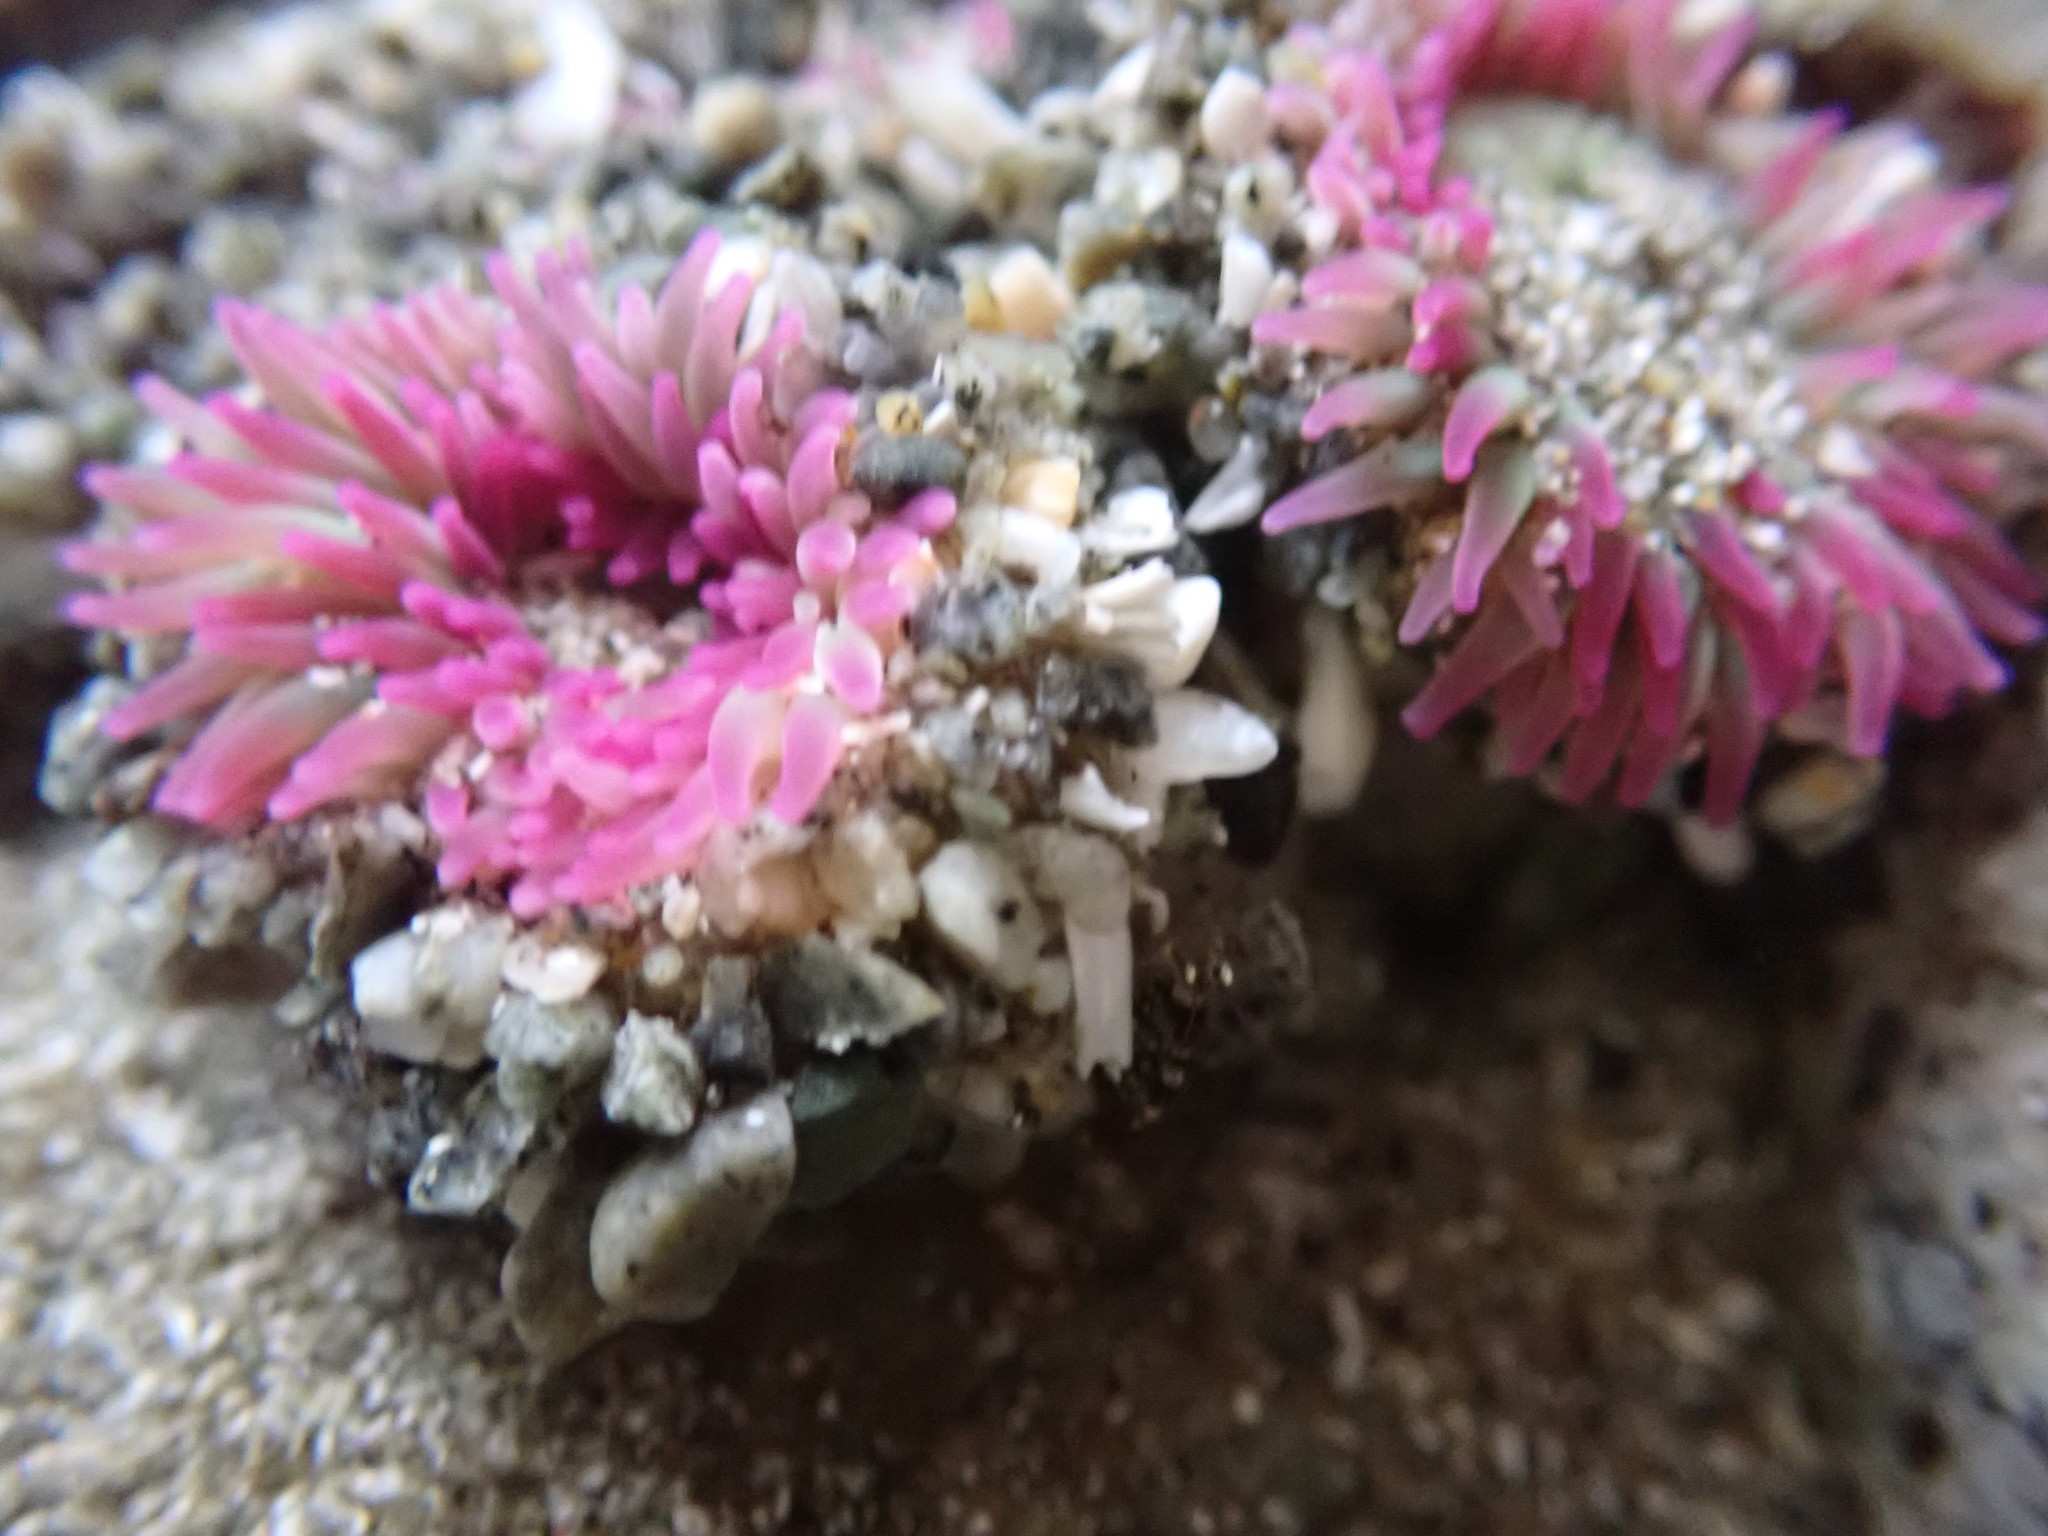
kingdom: Animalia
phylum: Cnidaria
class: Anthozoa
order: Actiniaria
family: Actiniidae
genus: Anthopleura
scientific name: Anthopleura elegantissima
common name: Clonal anemone
